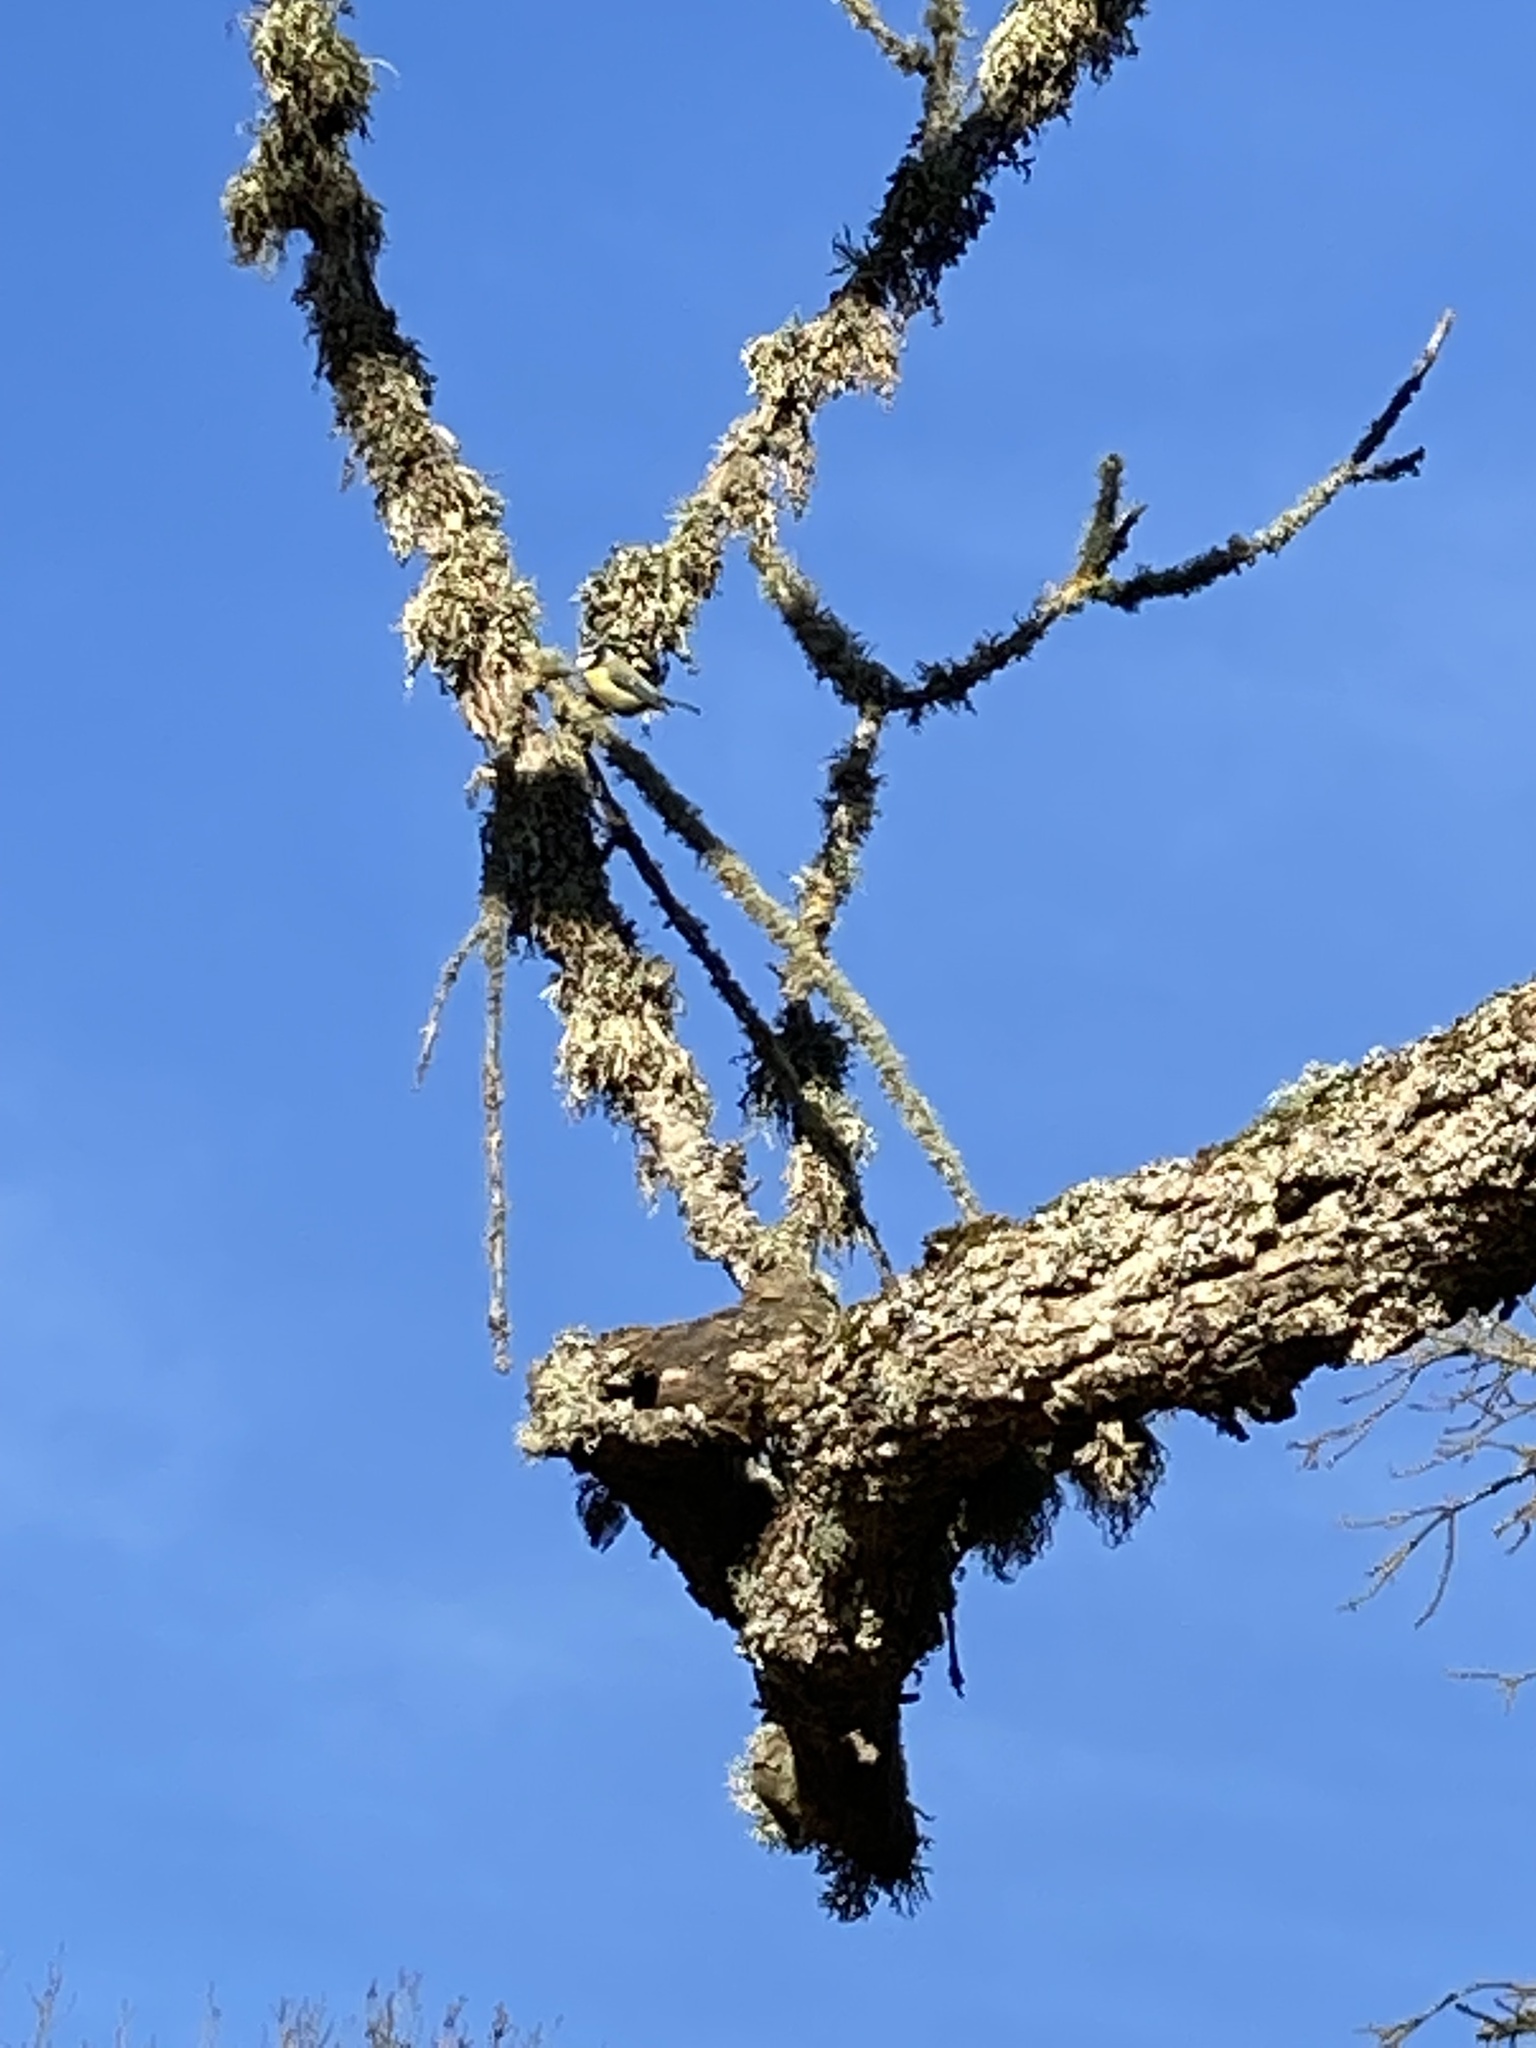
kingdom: Animalia
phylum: Chordata
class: Aves
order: Passeriformes
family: Paridae
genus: Cyanistes
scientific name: Cyanistes caeruleus
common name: Eurasian blue tit
